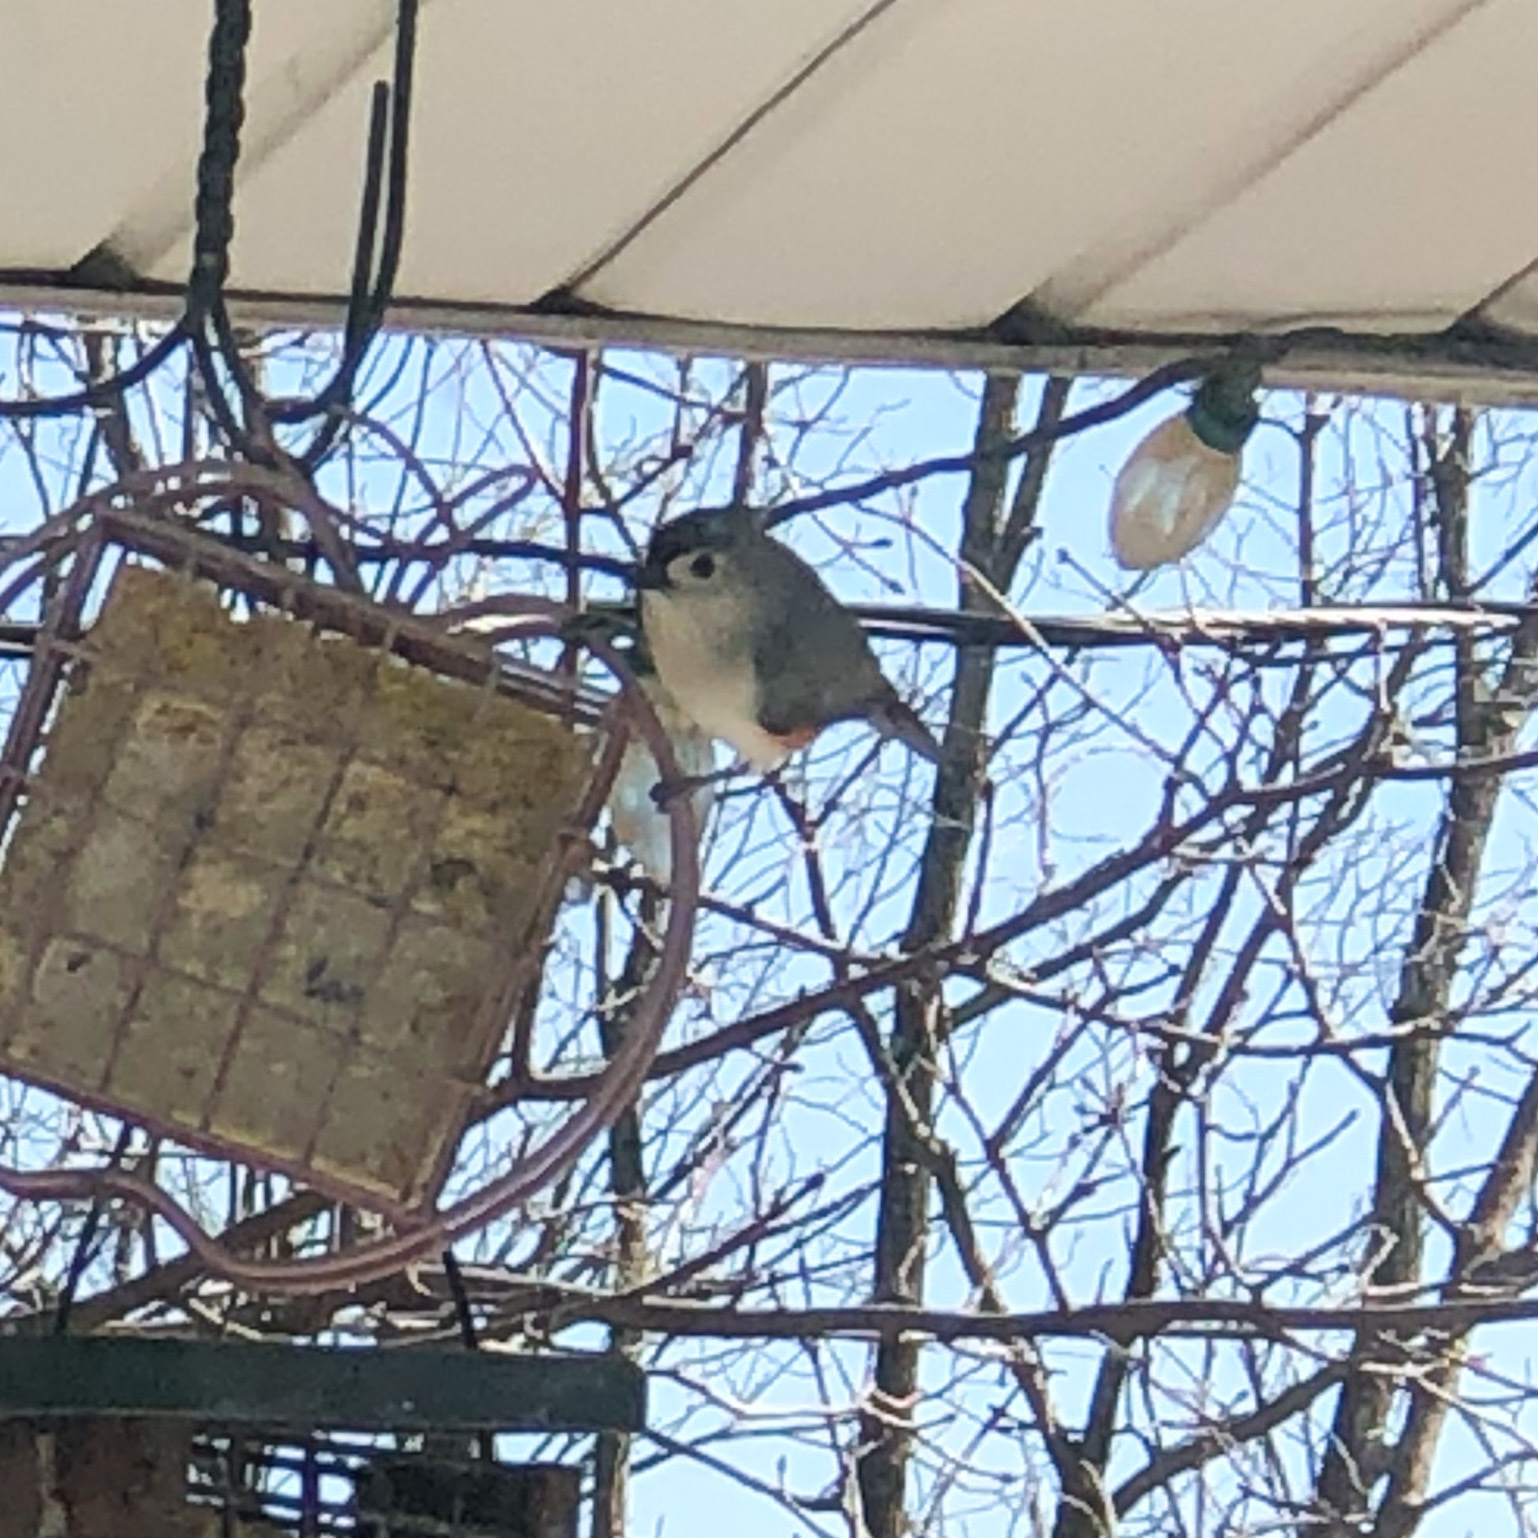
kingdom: Animalia
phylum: Chordata
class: Aves
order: Passeriformes
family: Paridae
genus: Baeolophus
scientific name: Baeolophus bicolor
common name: Tufted titmouse
